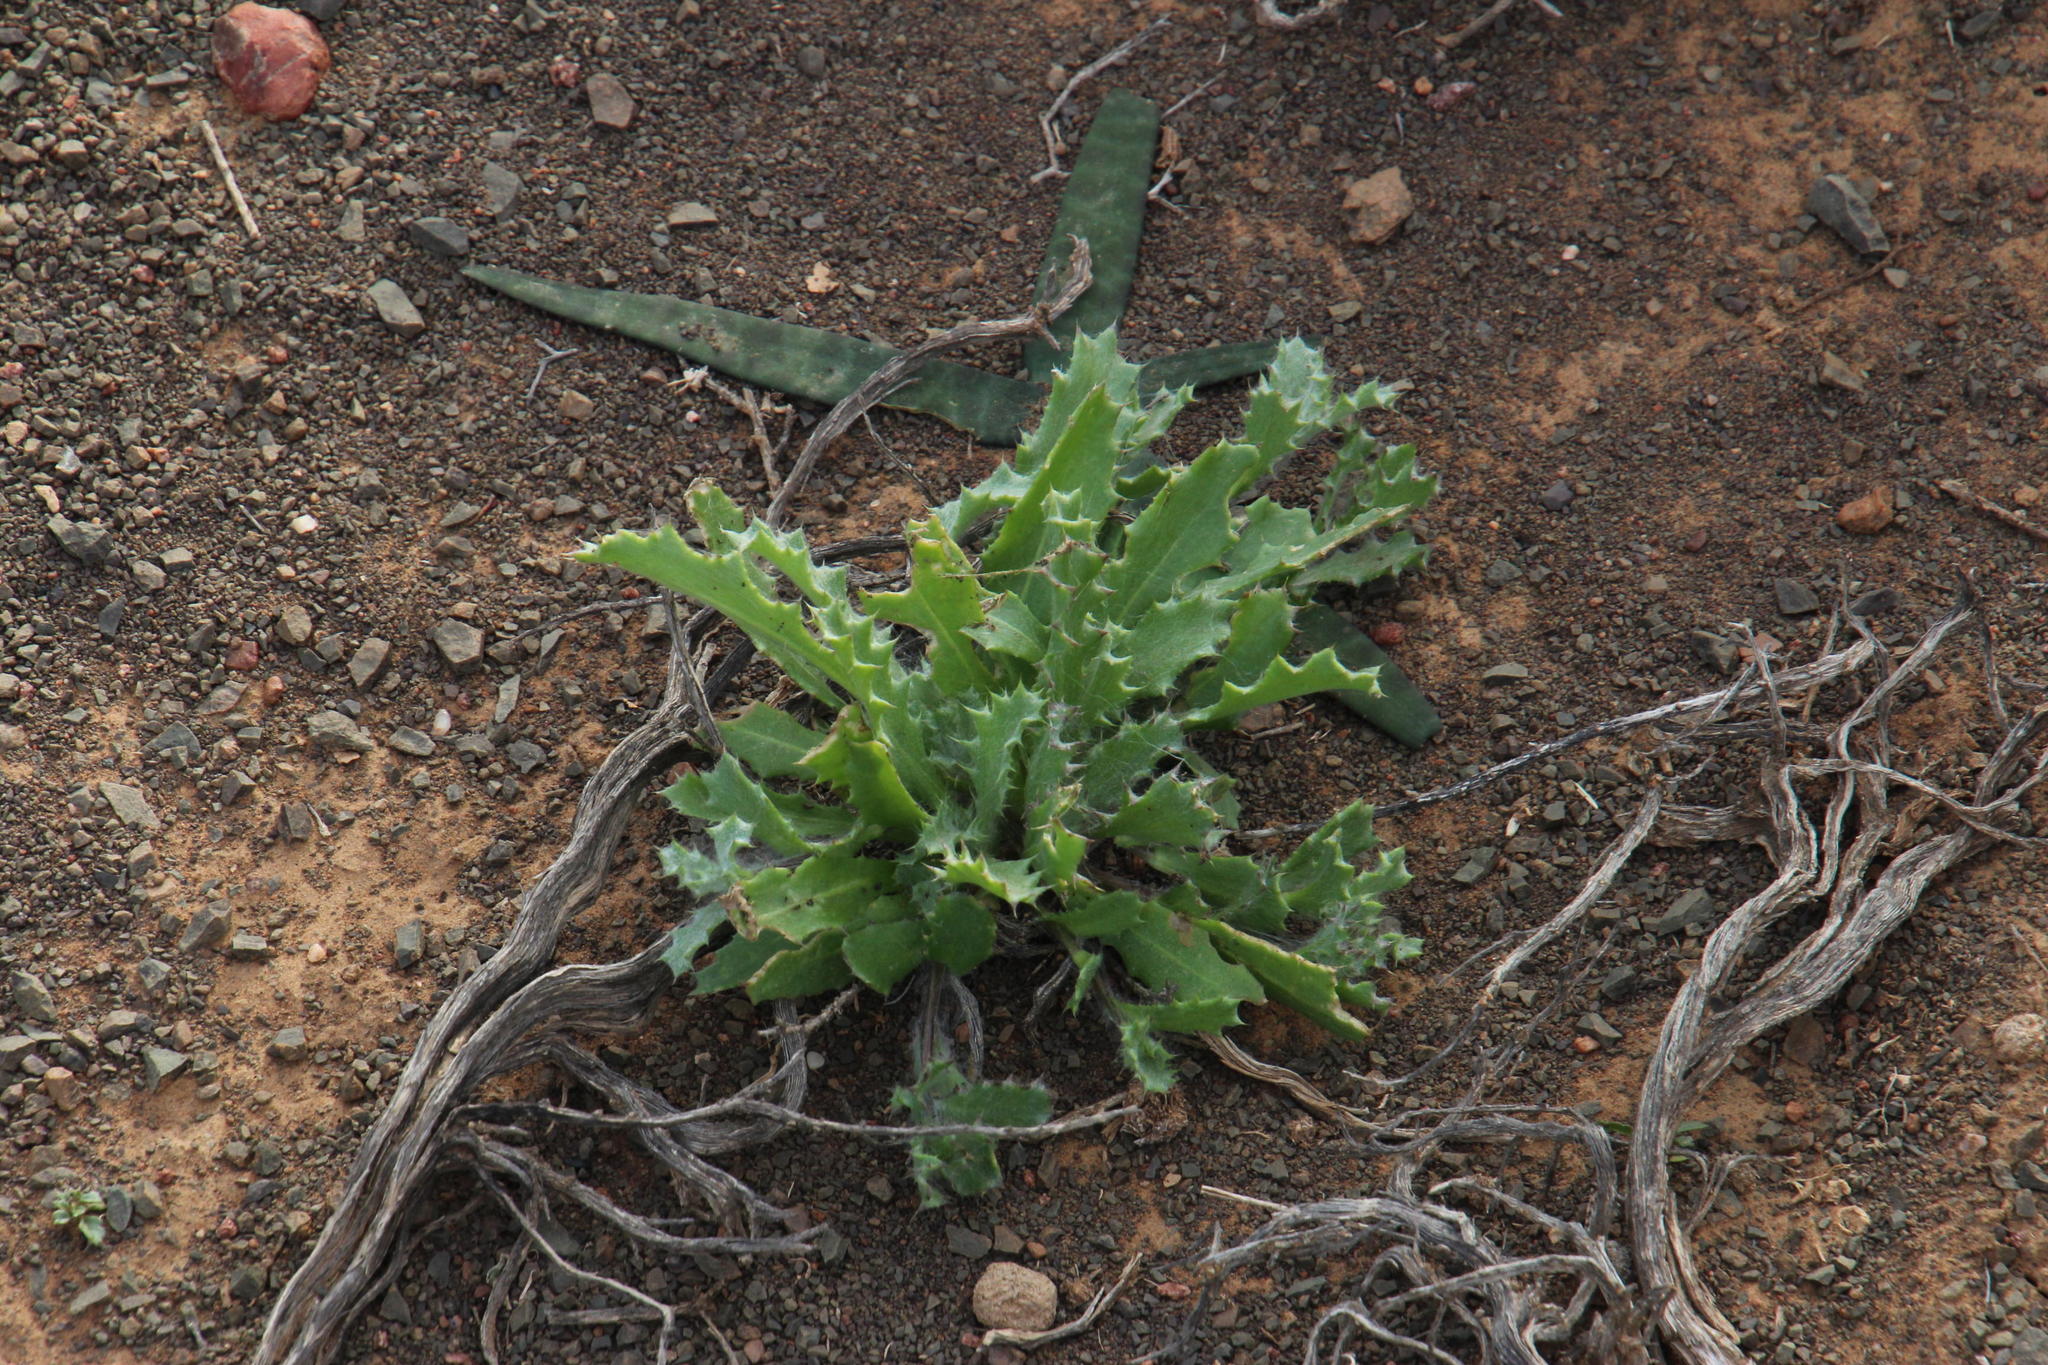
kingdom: Plantae
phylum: Tracheophyta
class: Magnoliopsida
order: Asterales
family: Asteraceae
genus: Cuspidia
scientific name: Cuspidia cernua
